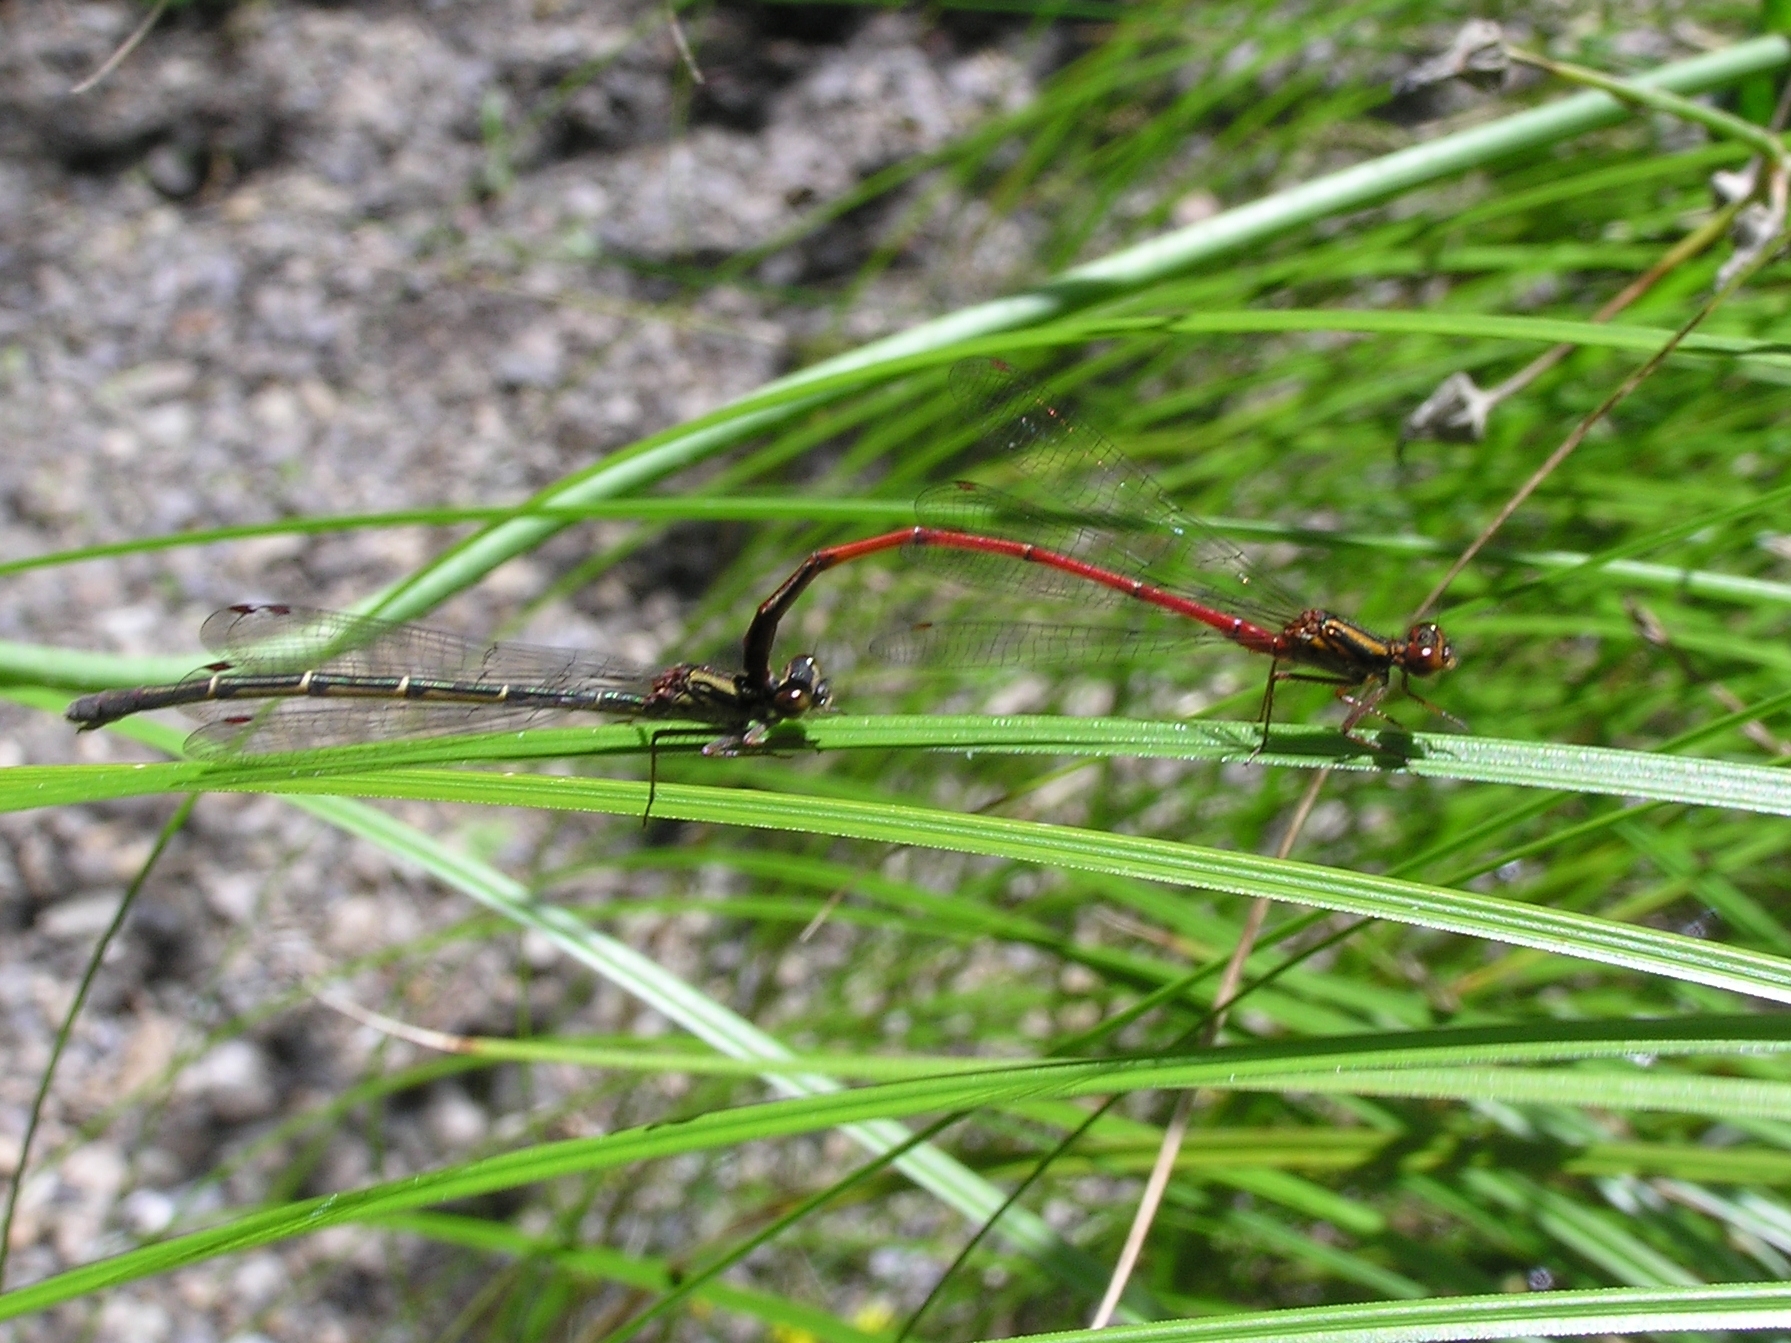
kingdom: Animalia
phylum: Arthropoda
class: Insecta
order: Odonata
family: Coenagrionidae
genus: Xanthocnemis
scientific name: Xanthocnemis zealandica
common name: Common redcoat damselfly
